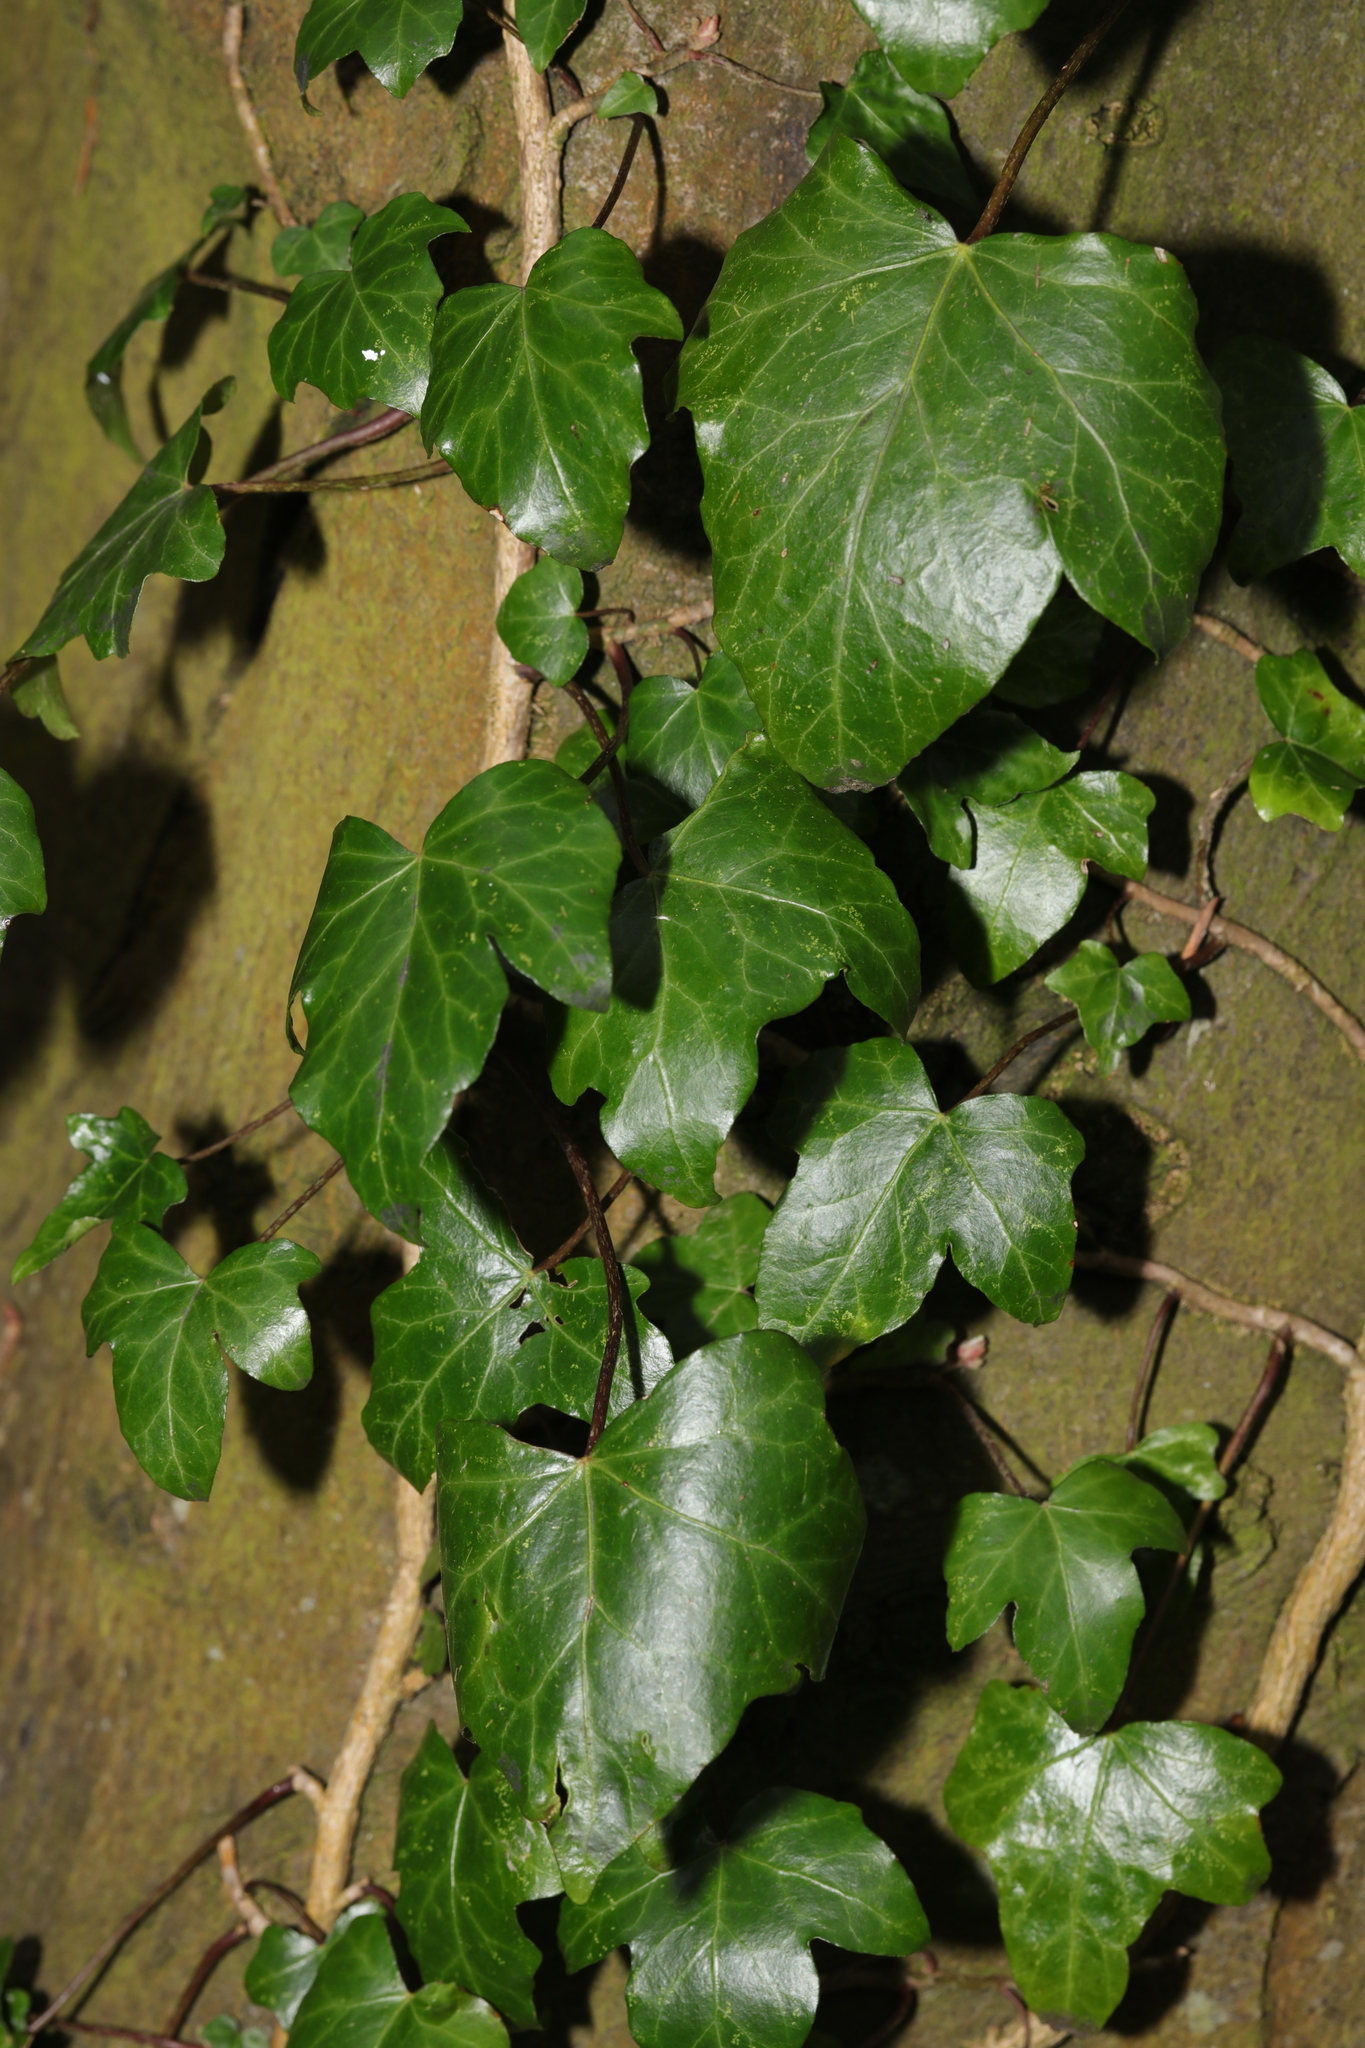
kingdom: Plantae
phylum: Tracheophyta
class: Magnoliopsida
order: Apiales
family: Araliaceae
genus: Hedera
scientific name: Hedera helix
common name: Ivy
